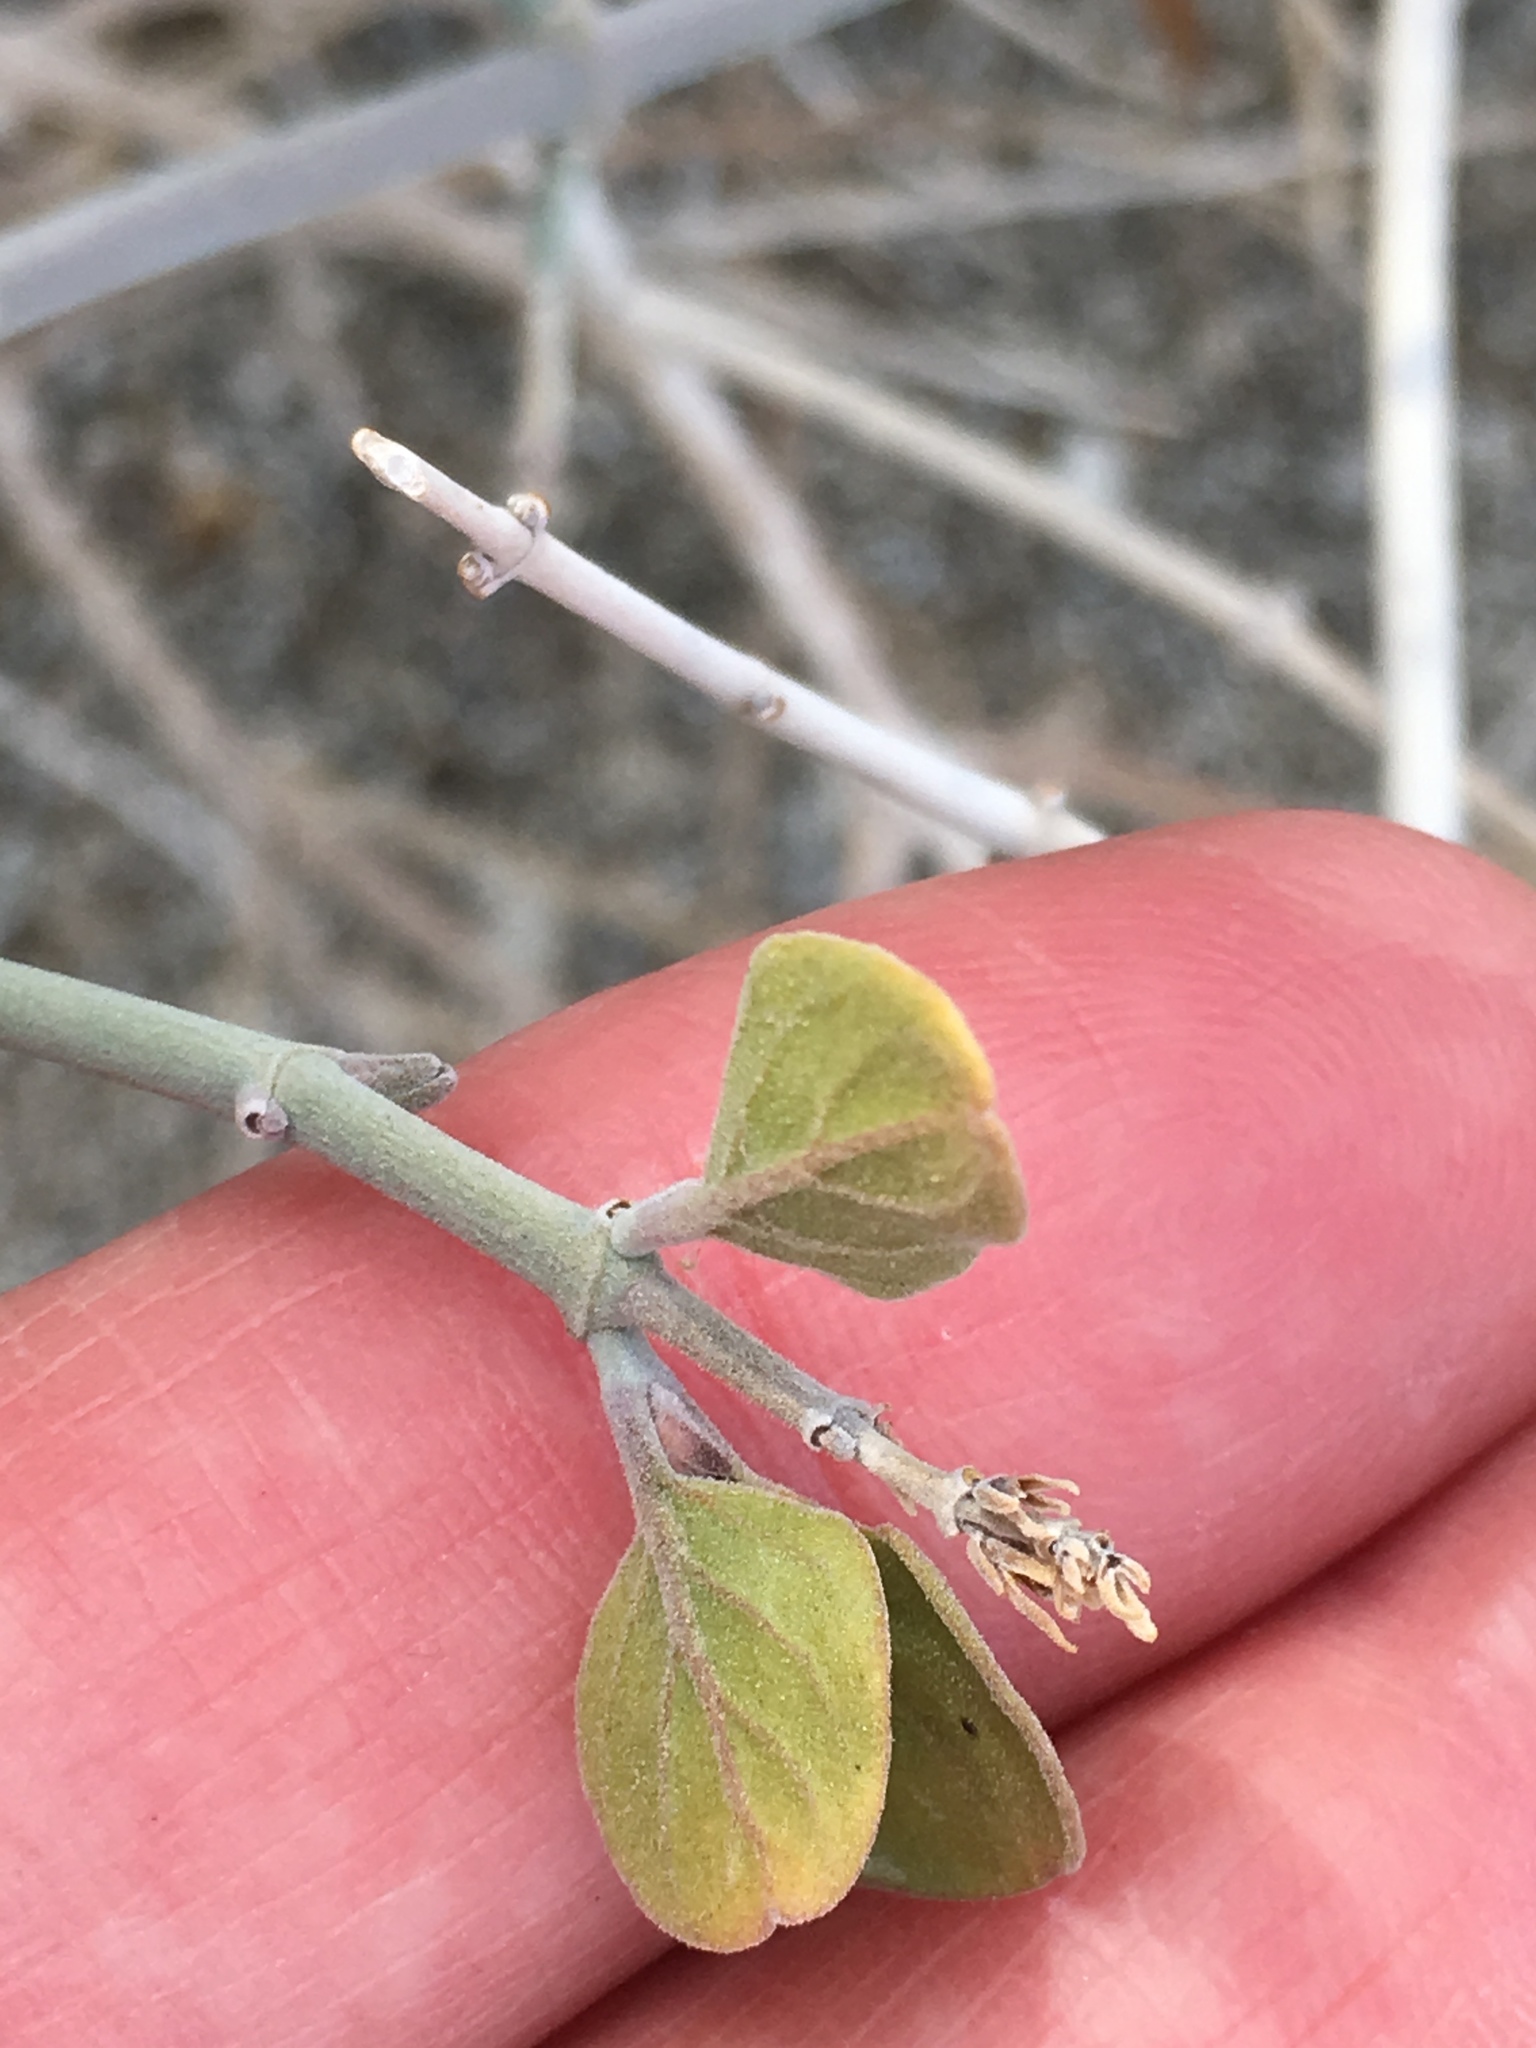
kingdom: Plantae
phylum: Tracheophyta
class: Magnoliopsida
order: Lamiales
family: Acanthaceae
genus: Justicia
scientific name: Justicia californica
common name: Chuparosa-honeysuckle
